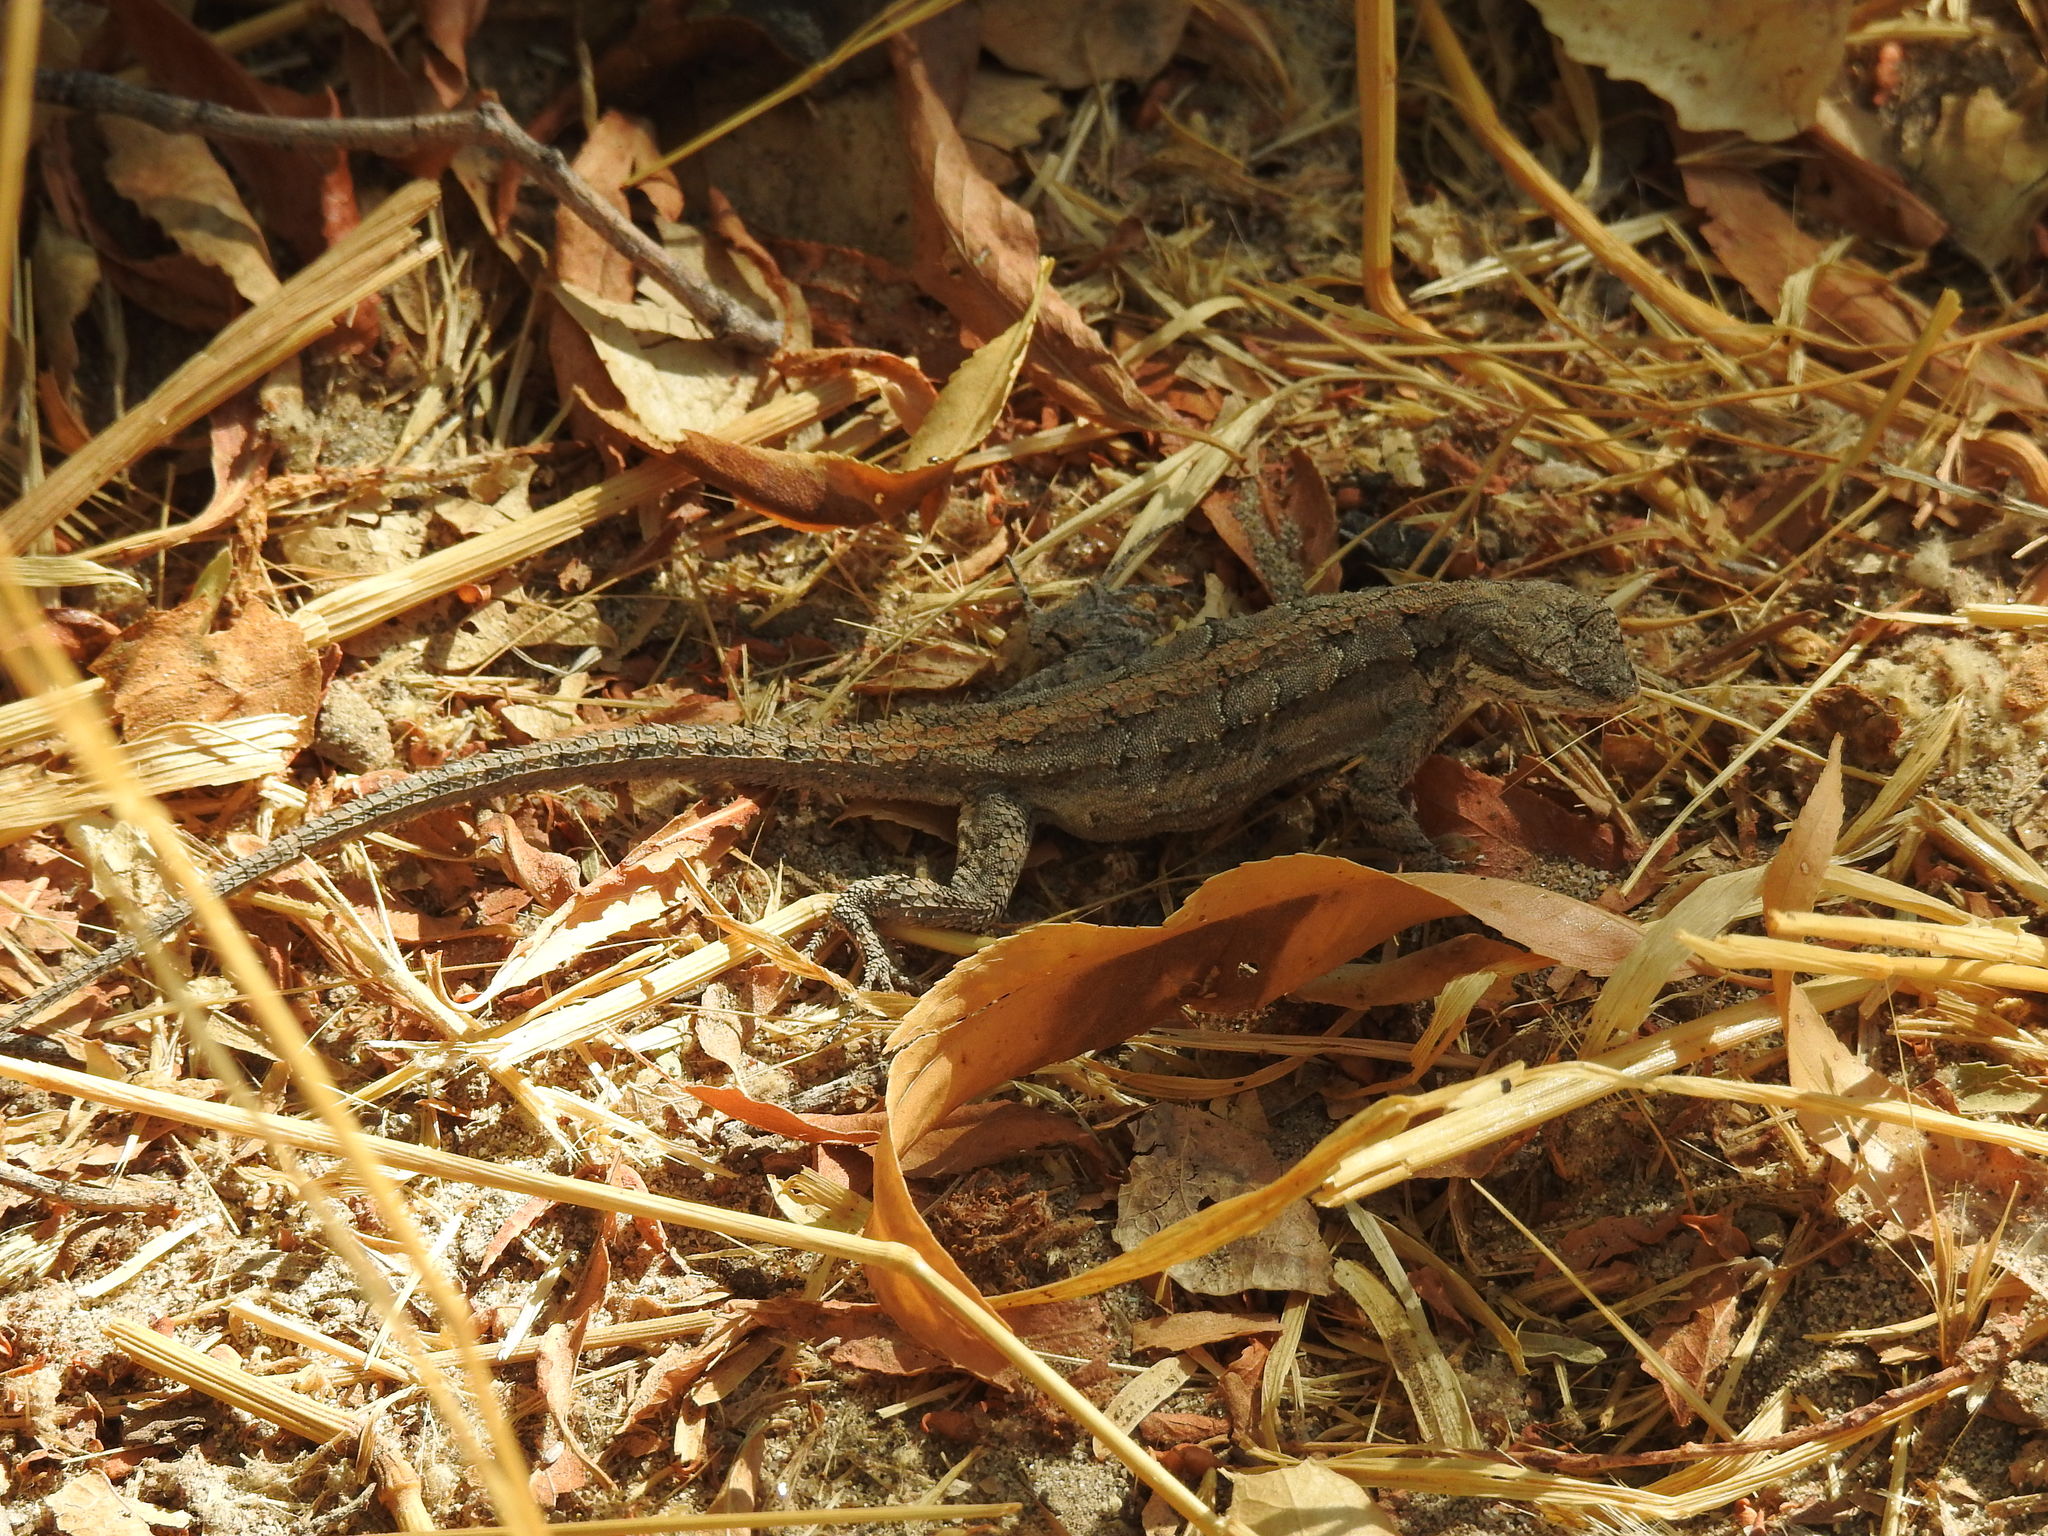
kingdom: Animalia
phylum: Chordata
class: Squamata
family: Phrynosomatidae
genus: Urosaurus
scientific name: Urosaurus ornatus
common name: Ornate tree lizard
